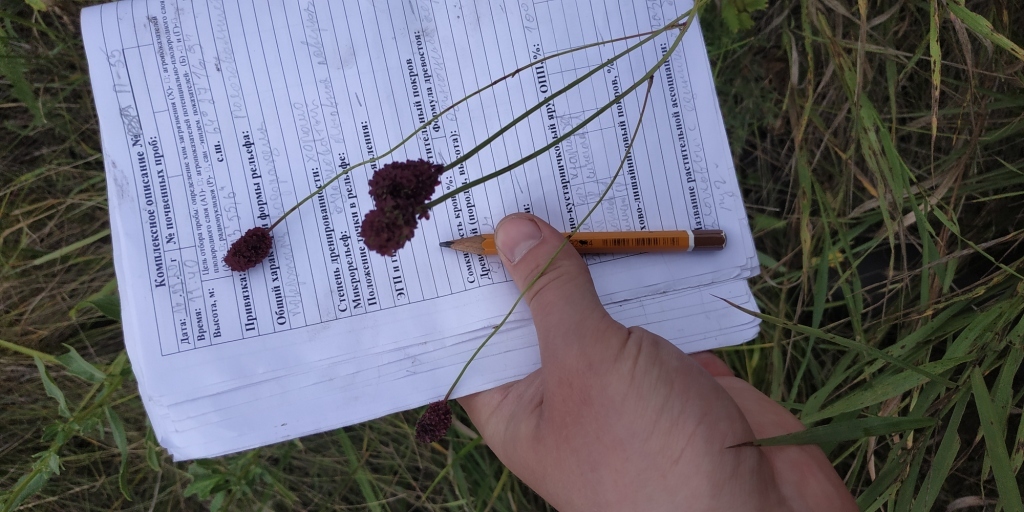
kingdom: Plantae
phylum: Tracheophyta
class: Magnoliopsida
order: Rosales
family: Rosaceae
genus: Sanguisorba
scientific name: Sanguisorba officinalis
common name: Great burnet
